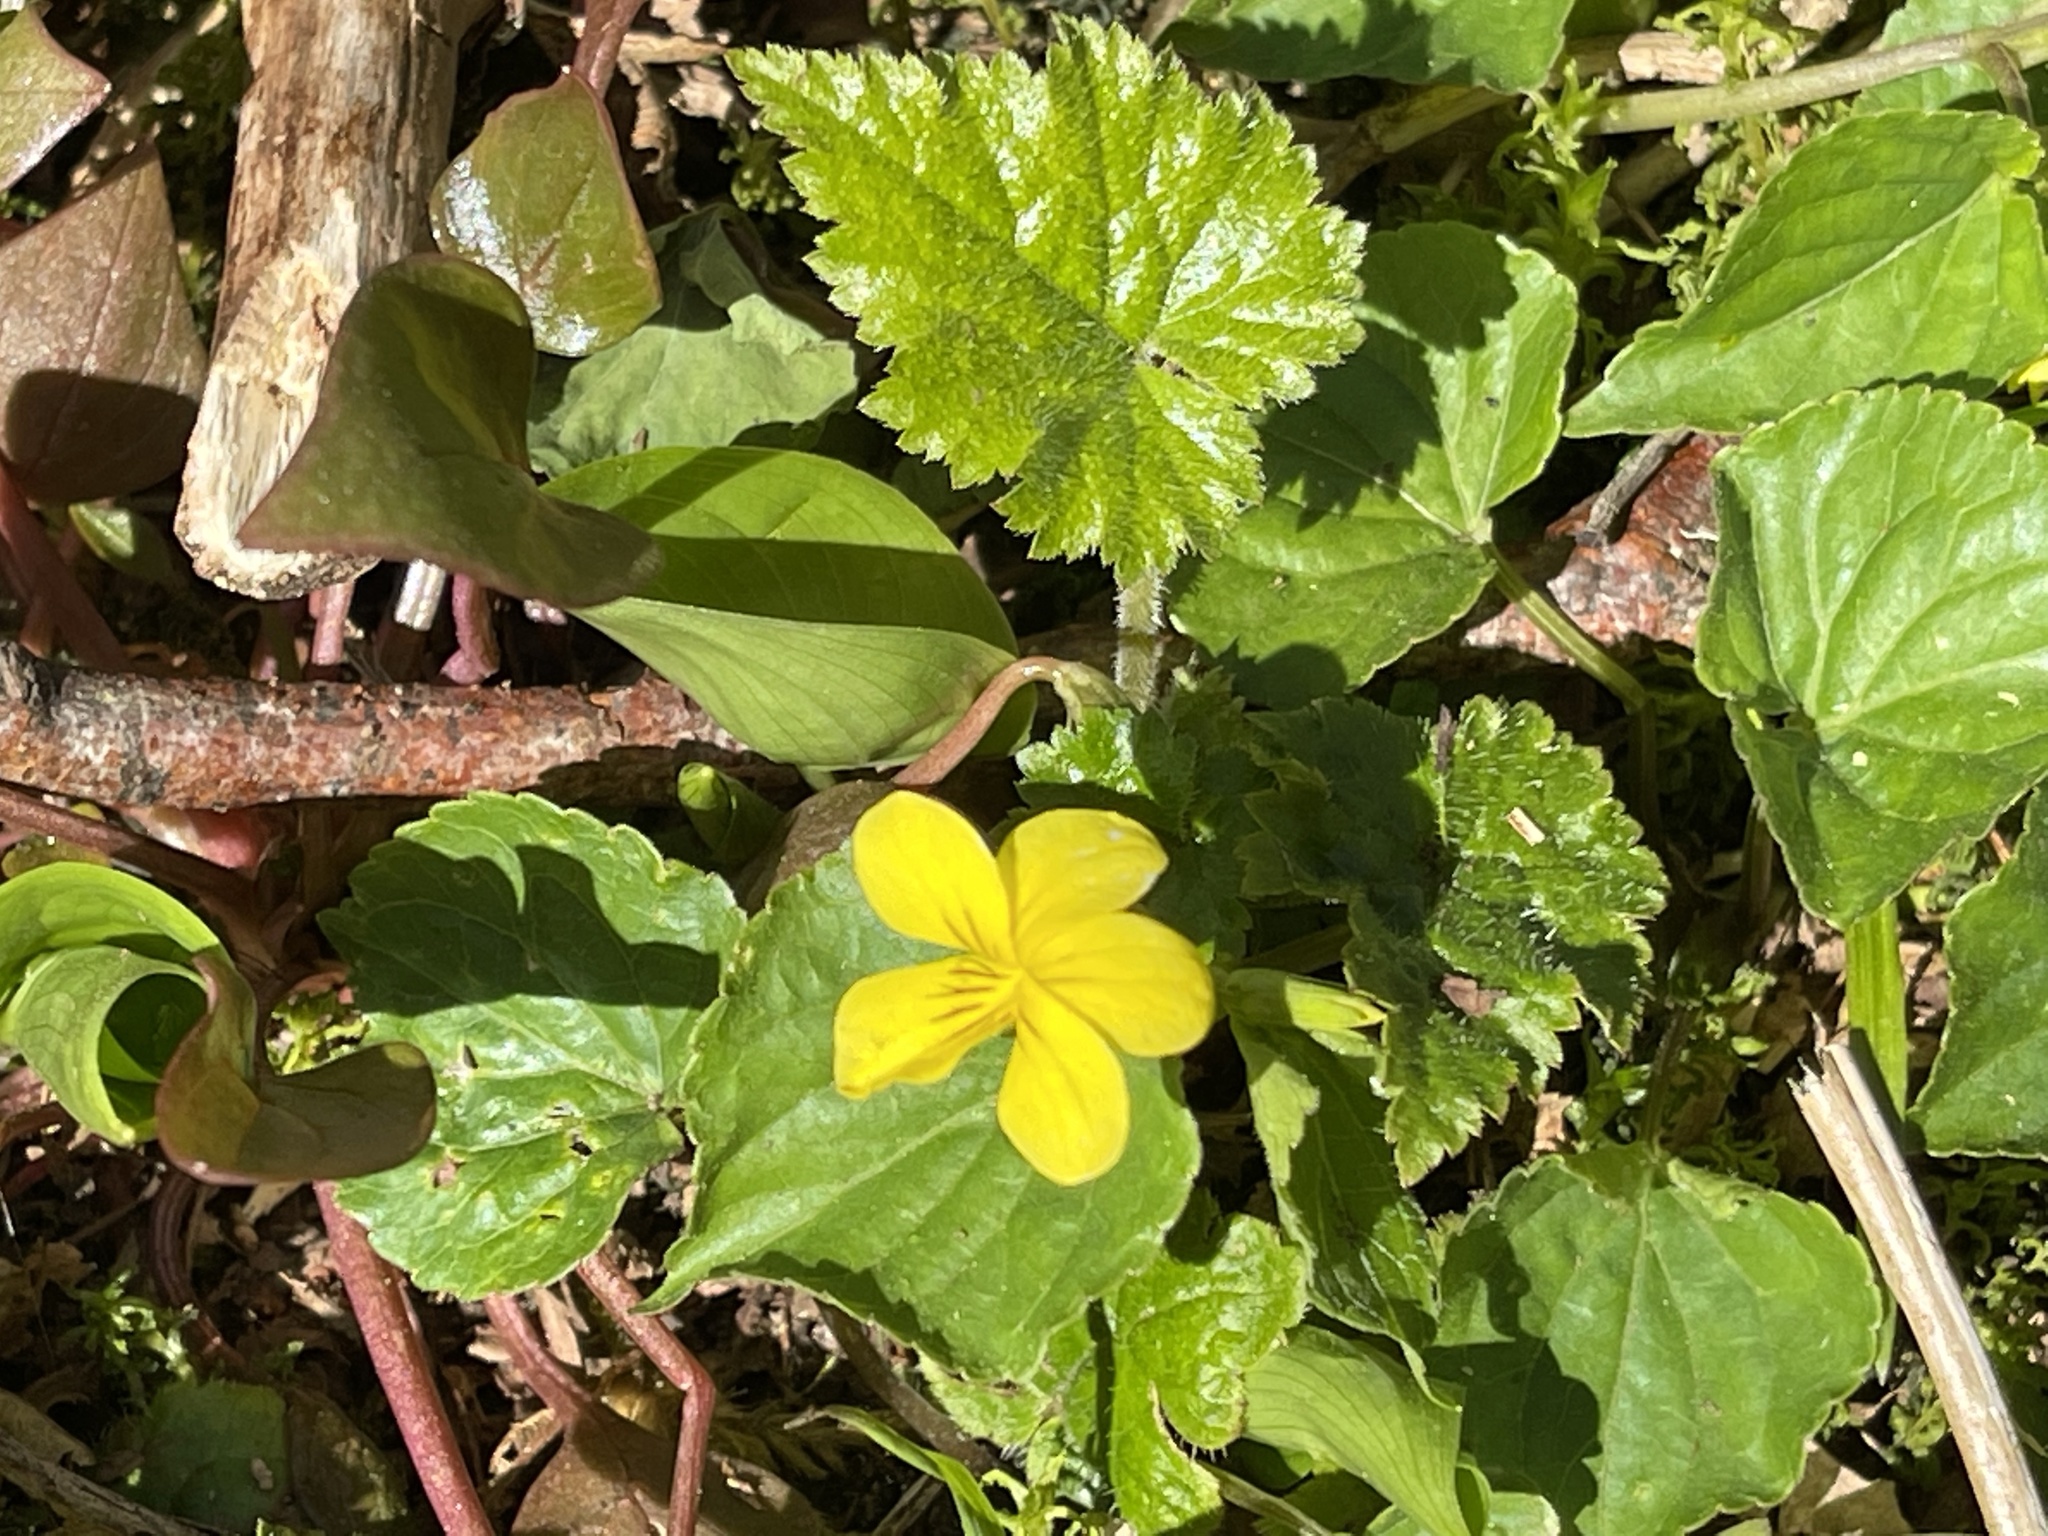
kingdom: Plantae
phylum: Tracheophyta
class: Magnoliopsida
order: Malpighiales
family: Violaceae
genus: Viola
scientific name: Viola glabella
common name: Stream violet
